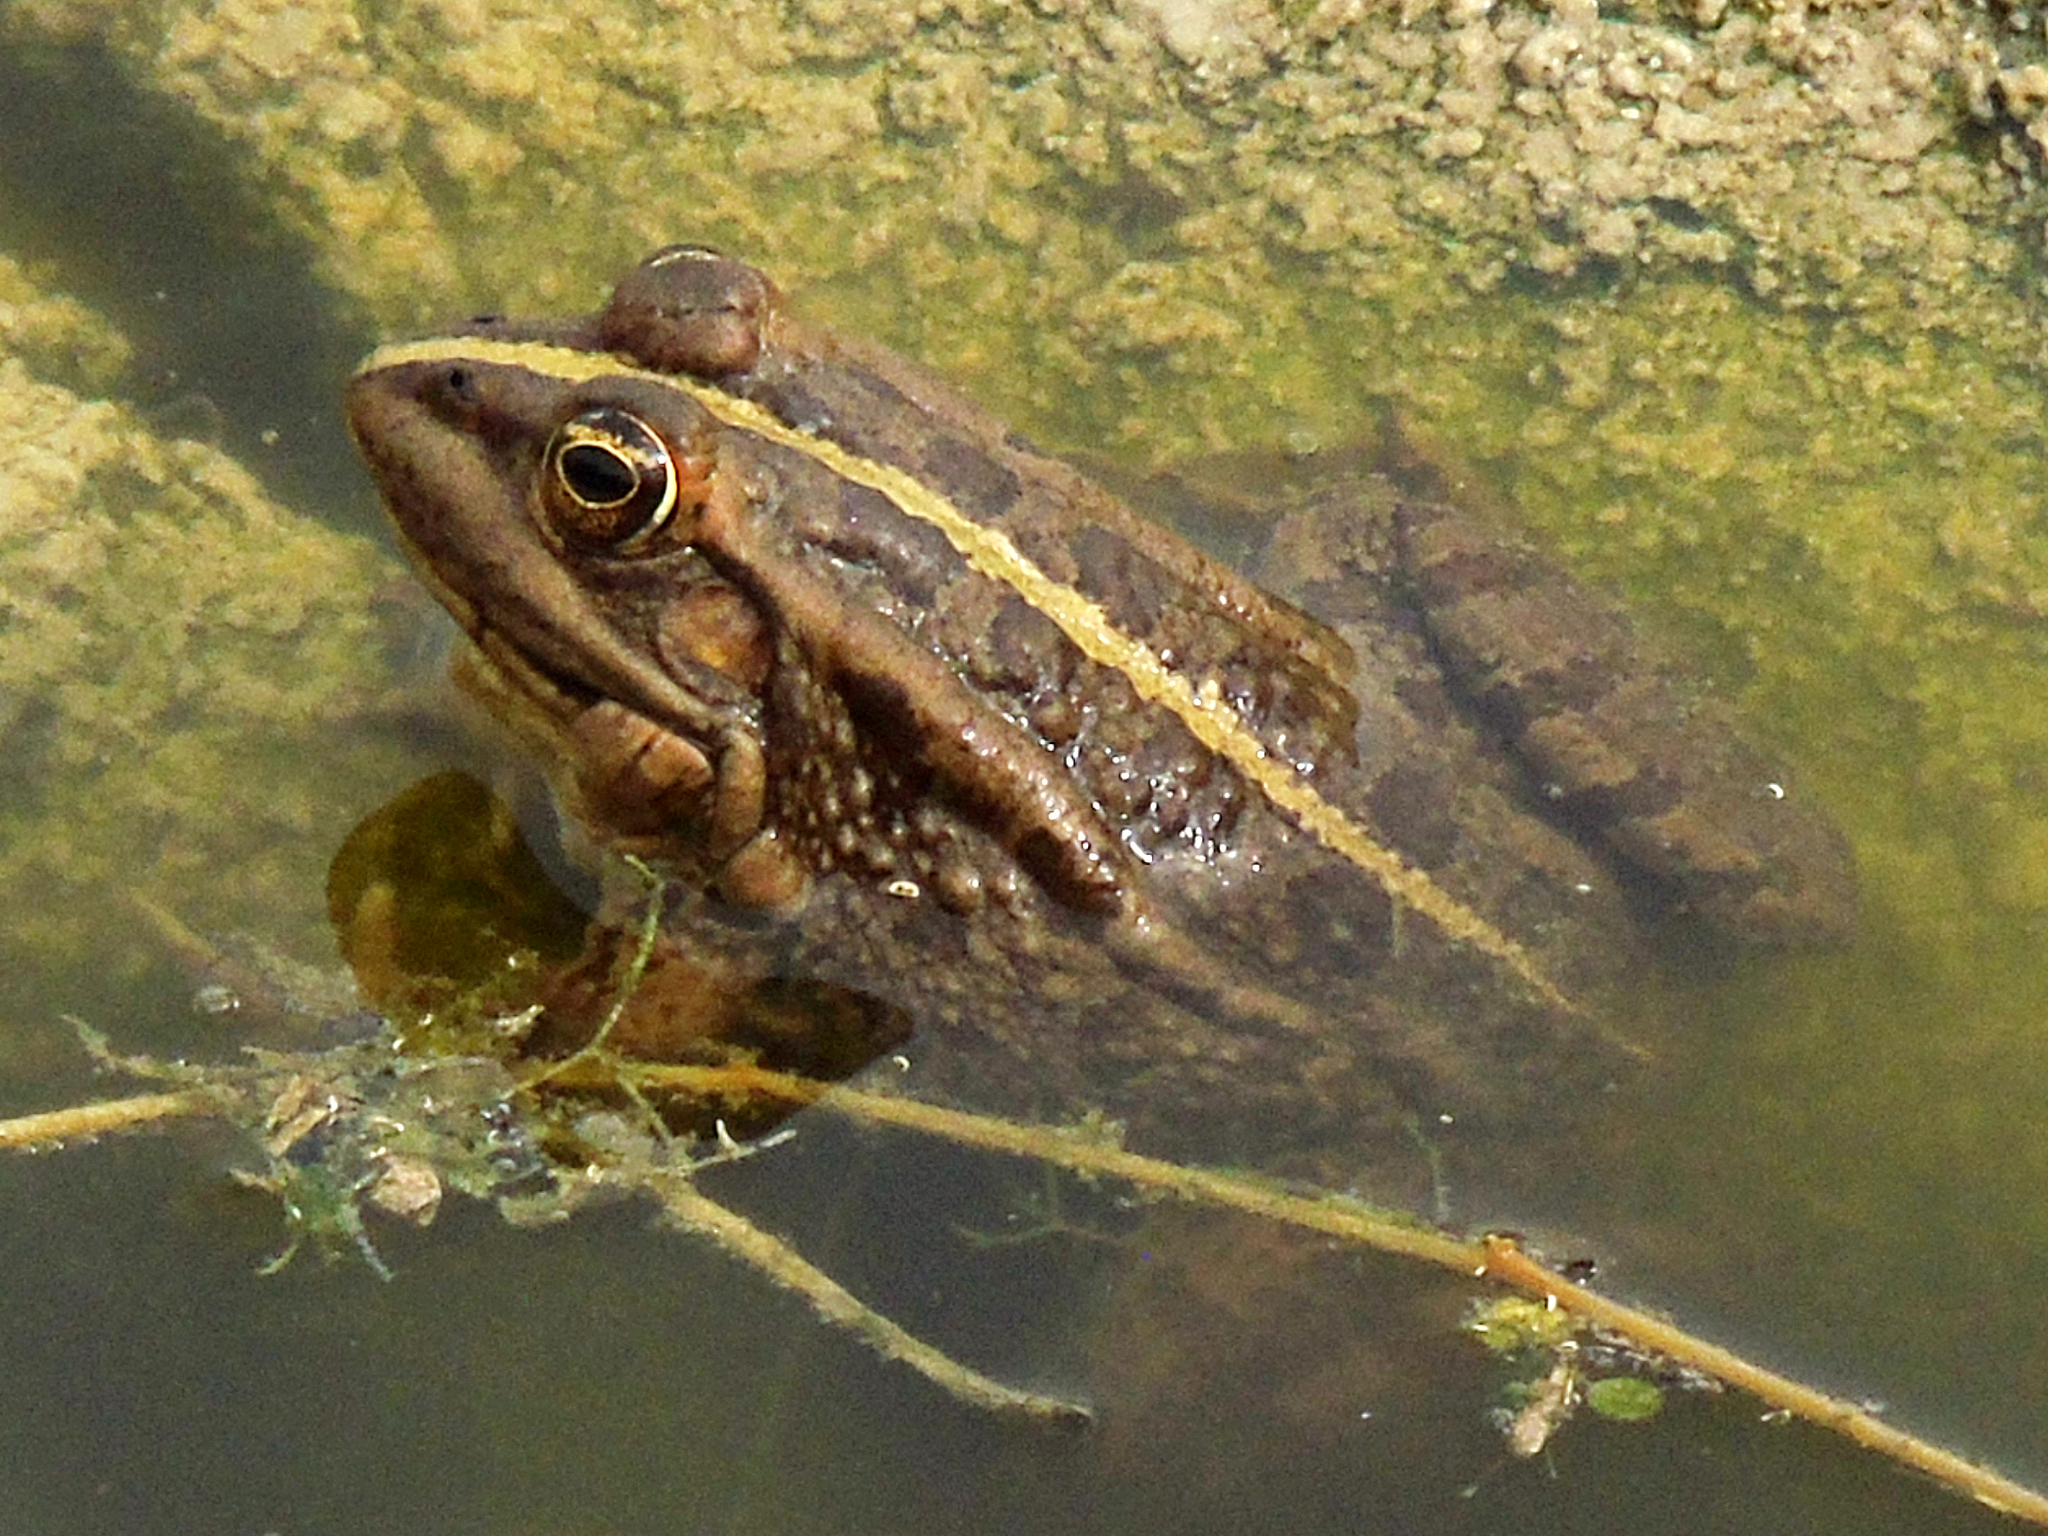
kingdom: Animalia
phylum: Chordata
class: Amphibia
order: Anura
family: Ranidae
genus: Pelophylax
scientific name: Pelophylax ridibundus
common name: Marsh frog
